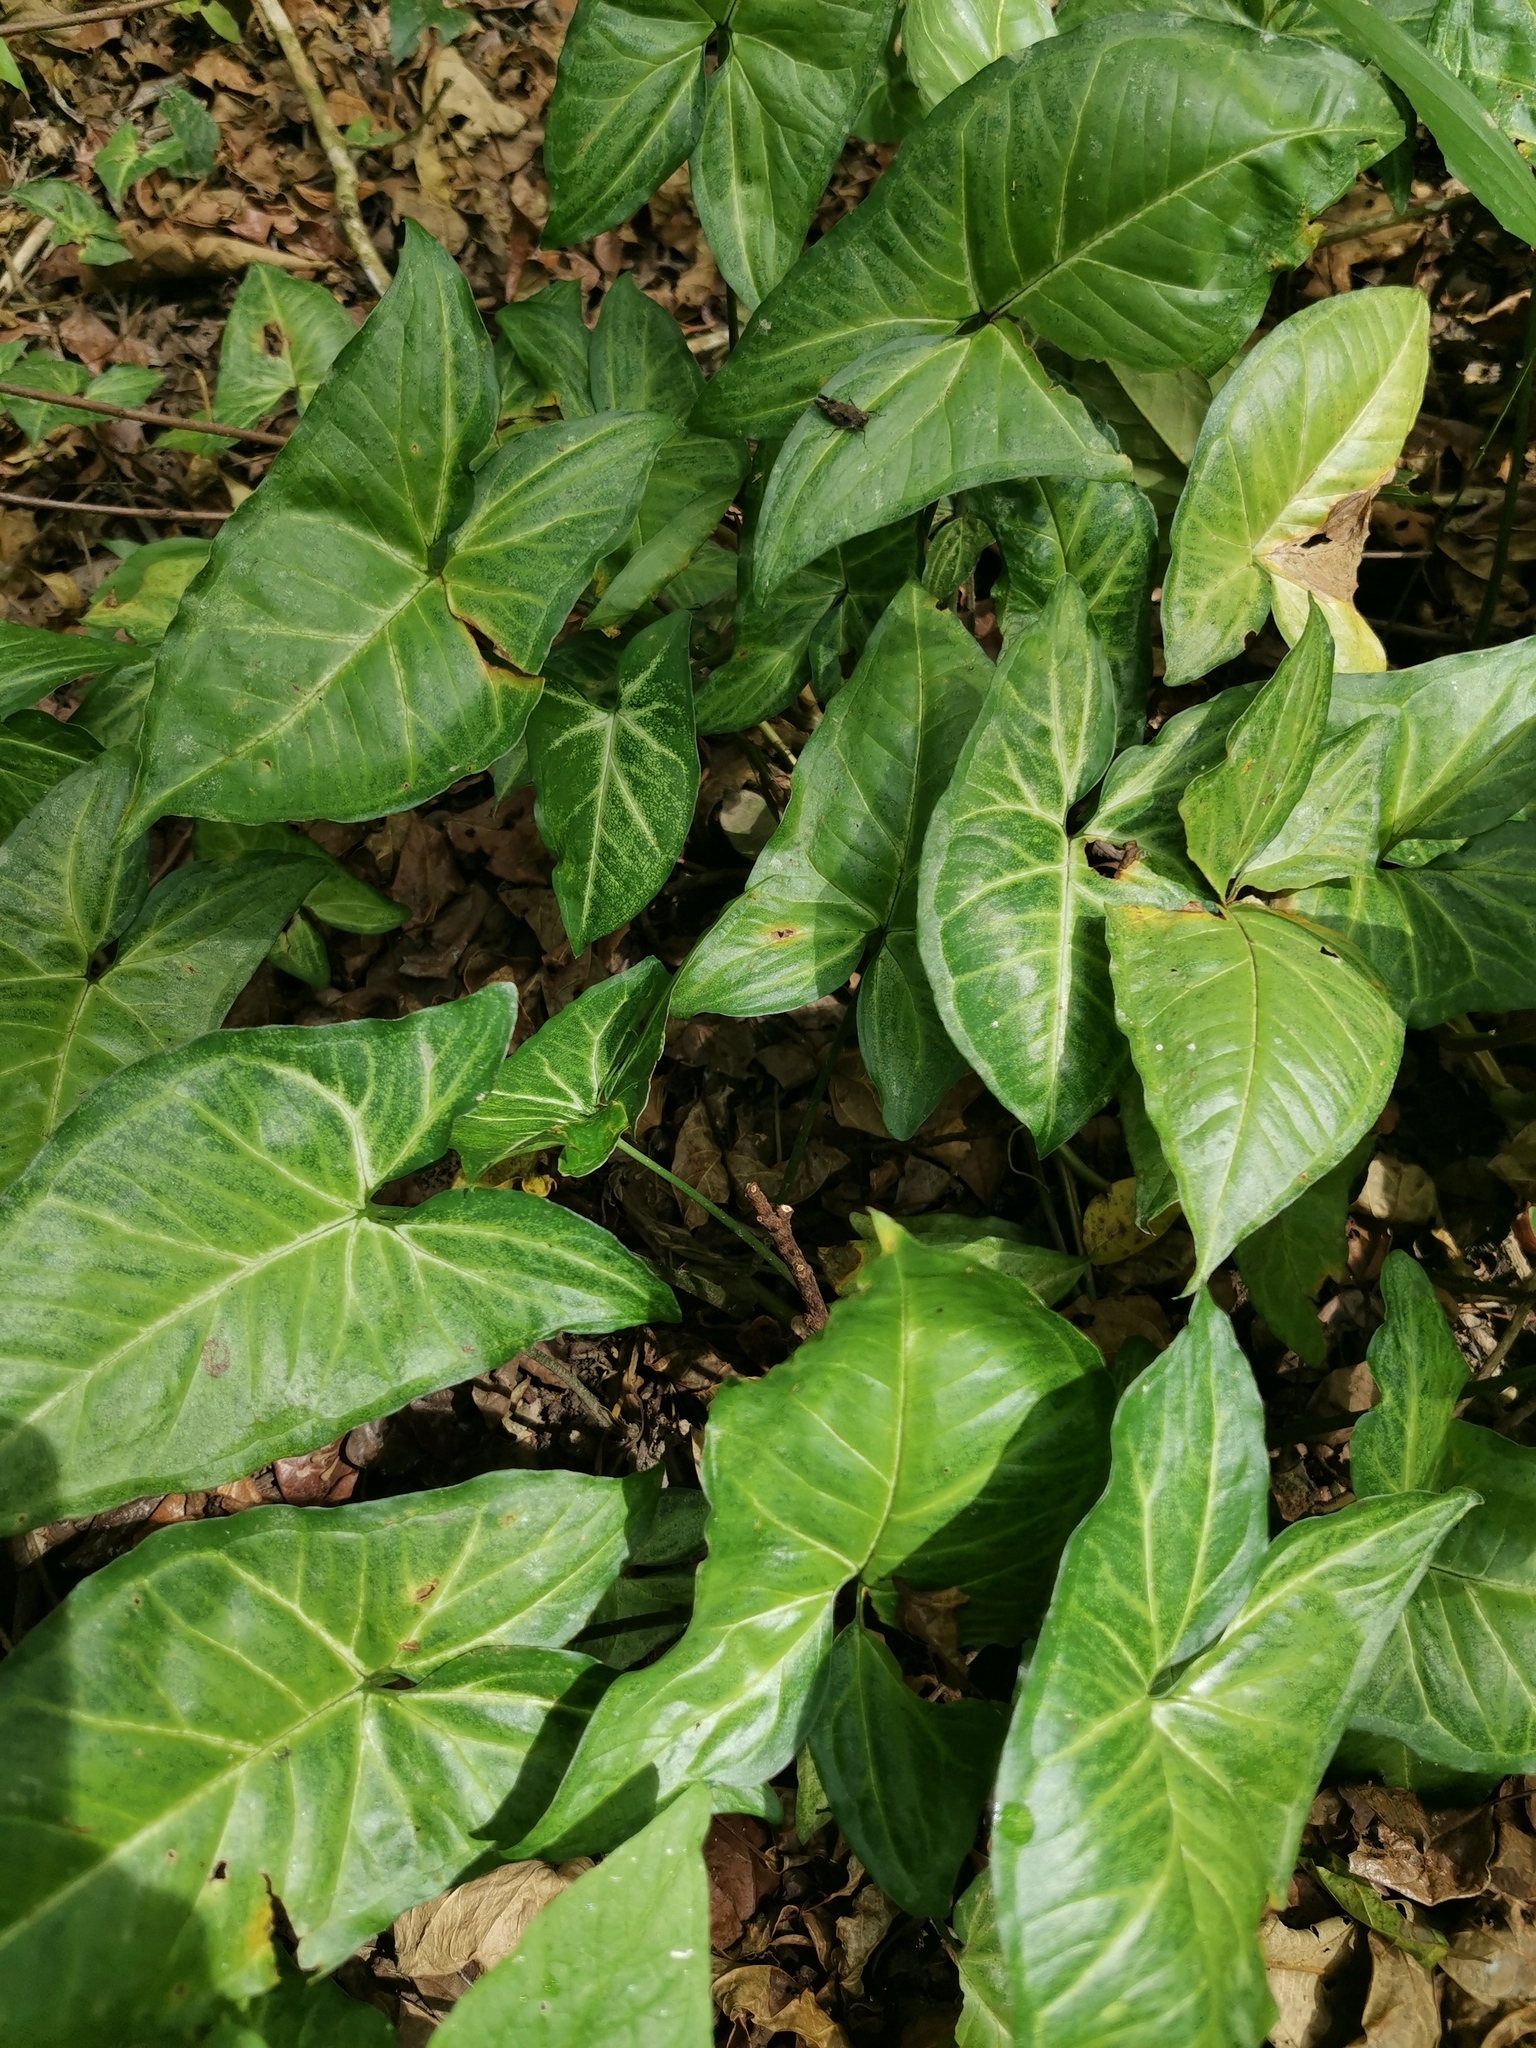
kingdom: Plantae
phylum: Tracheophyta
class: Liliopsida
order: Alismatales
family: Araceae
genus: Syngonium
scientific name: Syngonium podophyllum
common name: American evergreen
